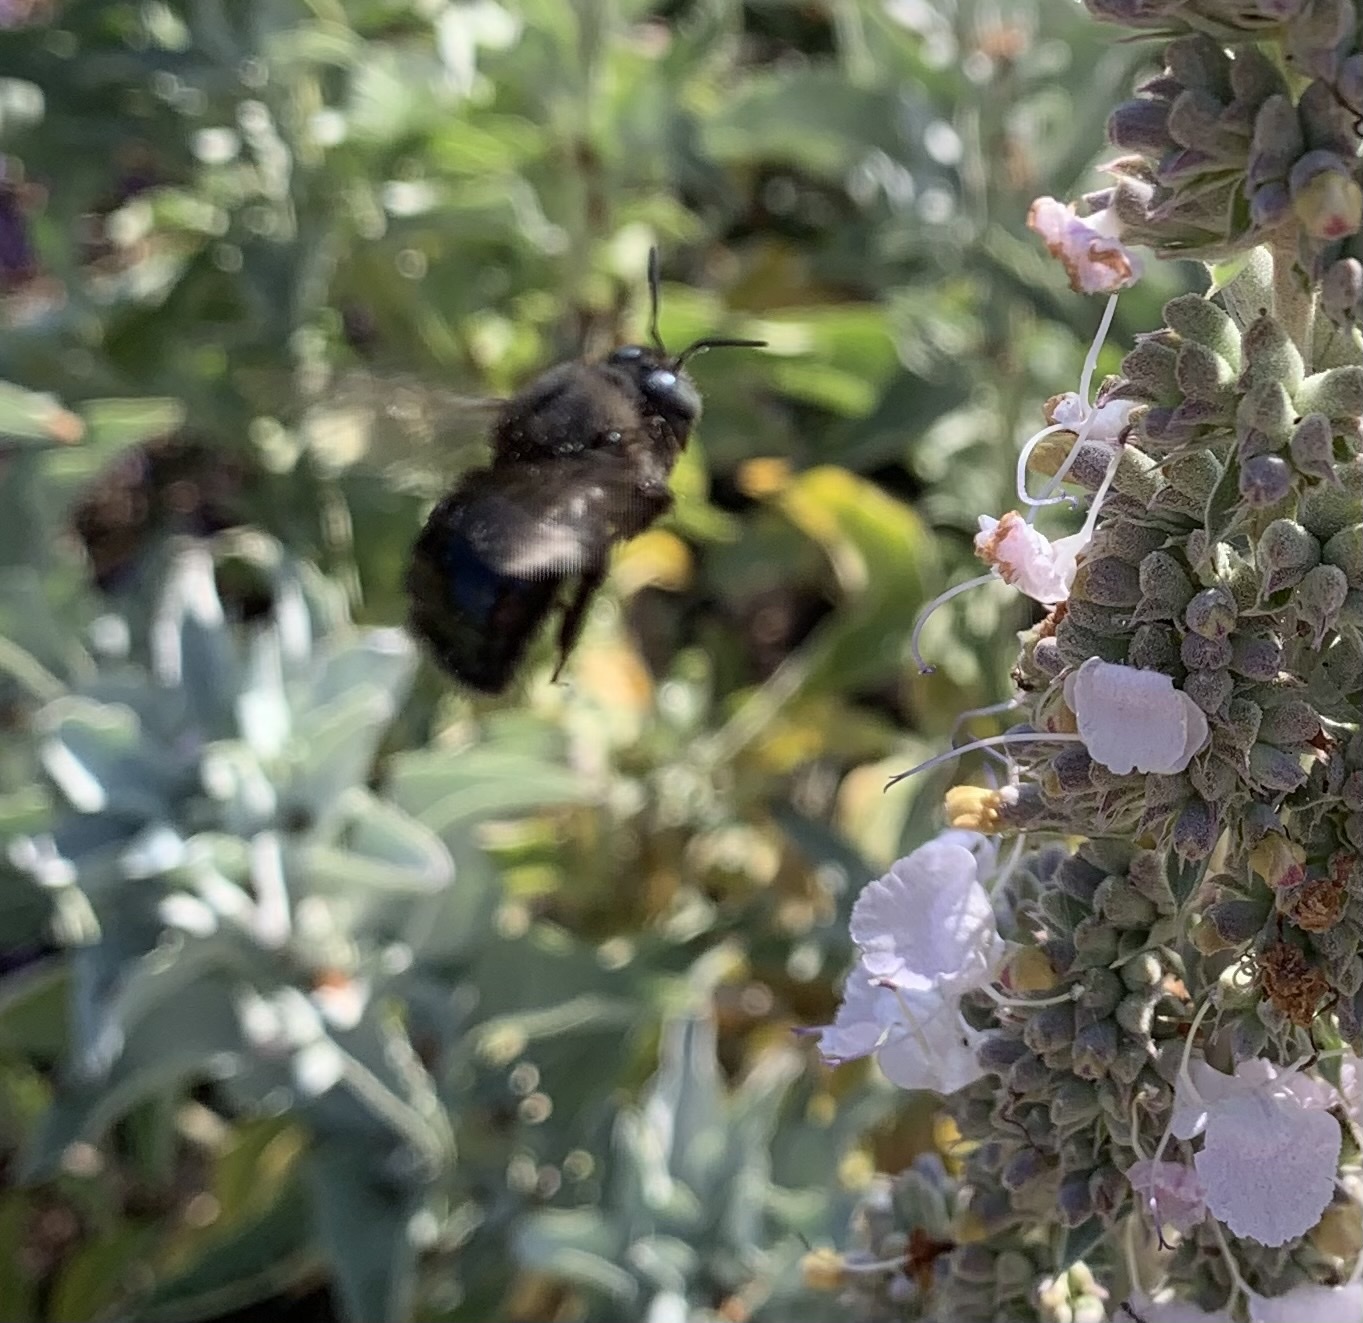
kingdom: Animalia
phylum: Arthropoda
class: Insecta
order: Hymenoptera
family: Apidae
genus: Xylocopa
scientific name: Xylocopa tabaniformis
